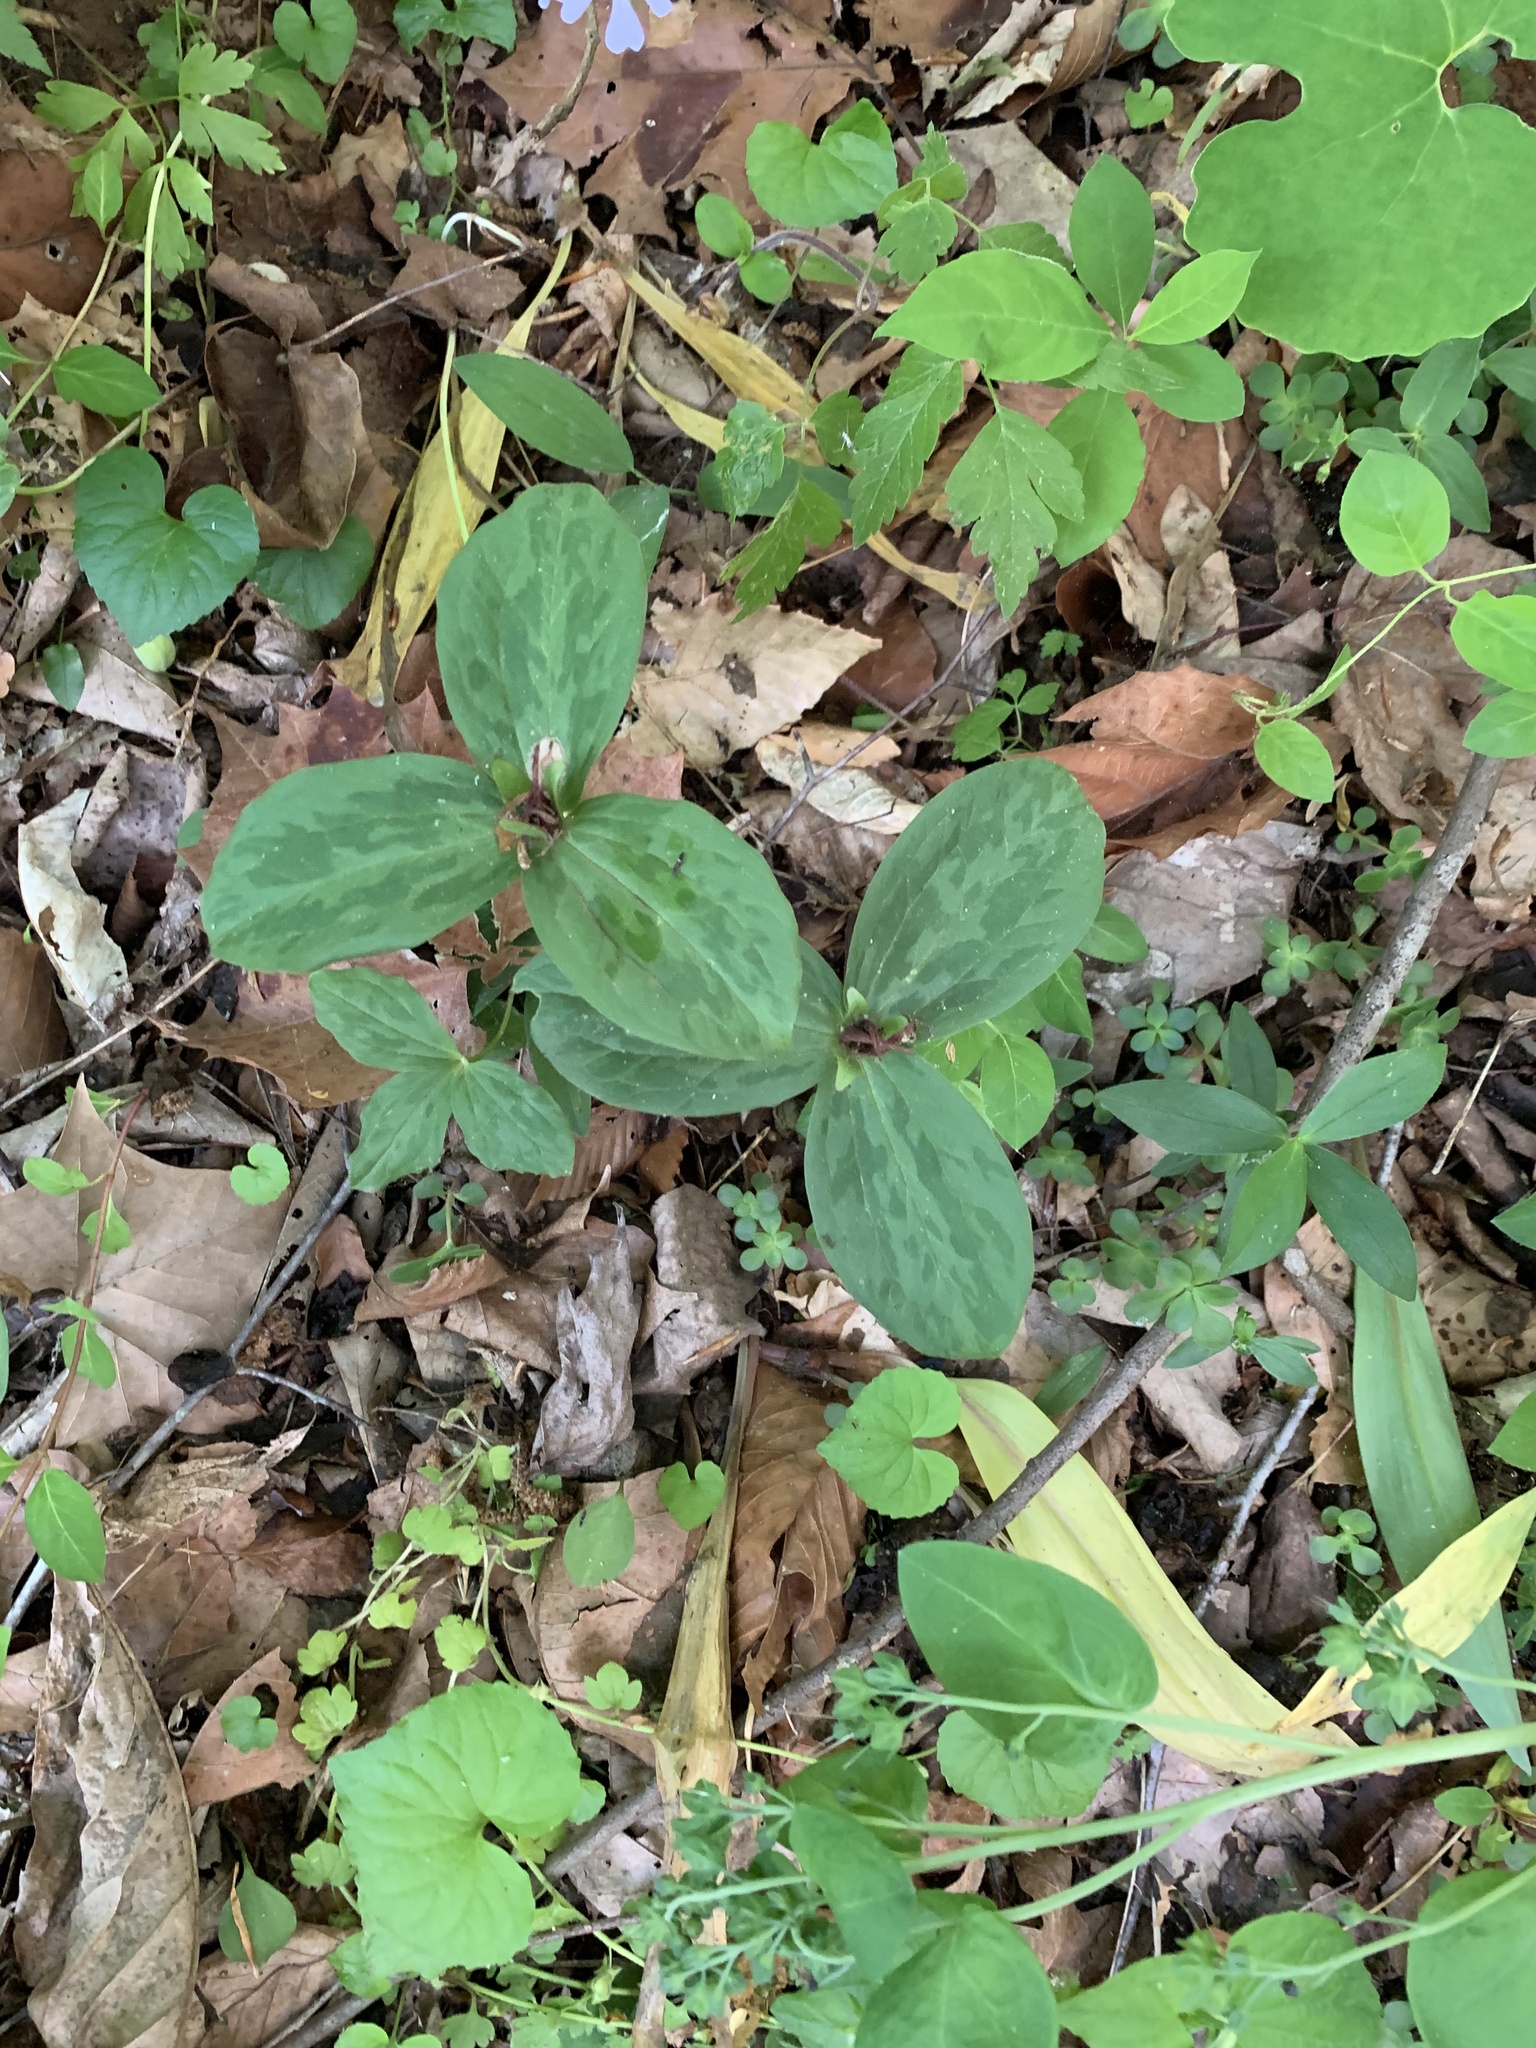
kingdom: Plantae
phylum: Tracheophyta
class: Liliopsida
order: Liliales
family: Melanthiaceae
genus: Trillium
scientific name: Trillium sessile
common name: Sessile trillium
